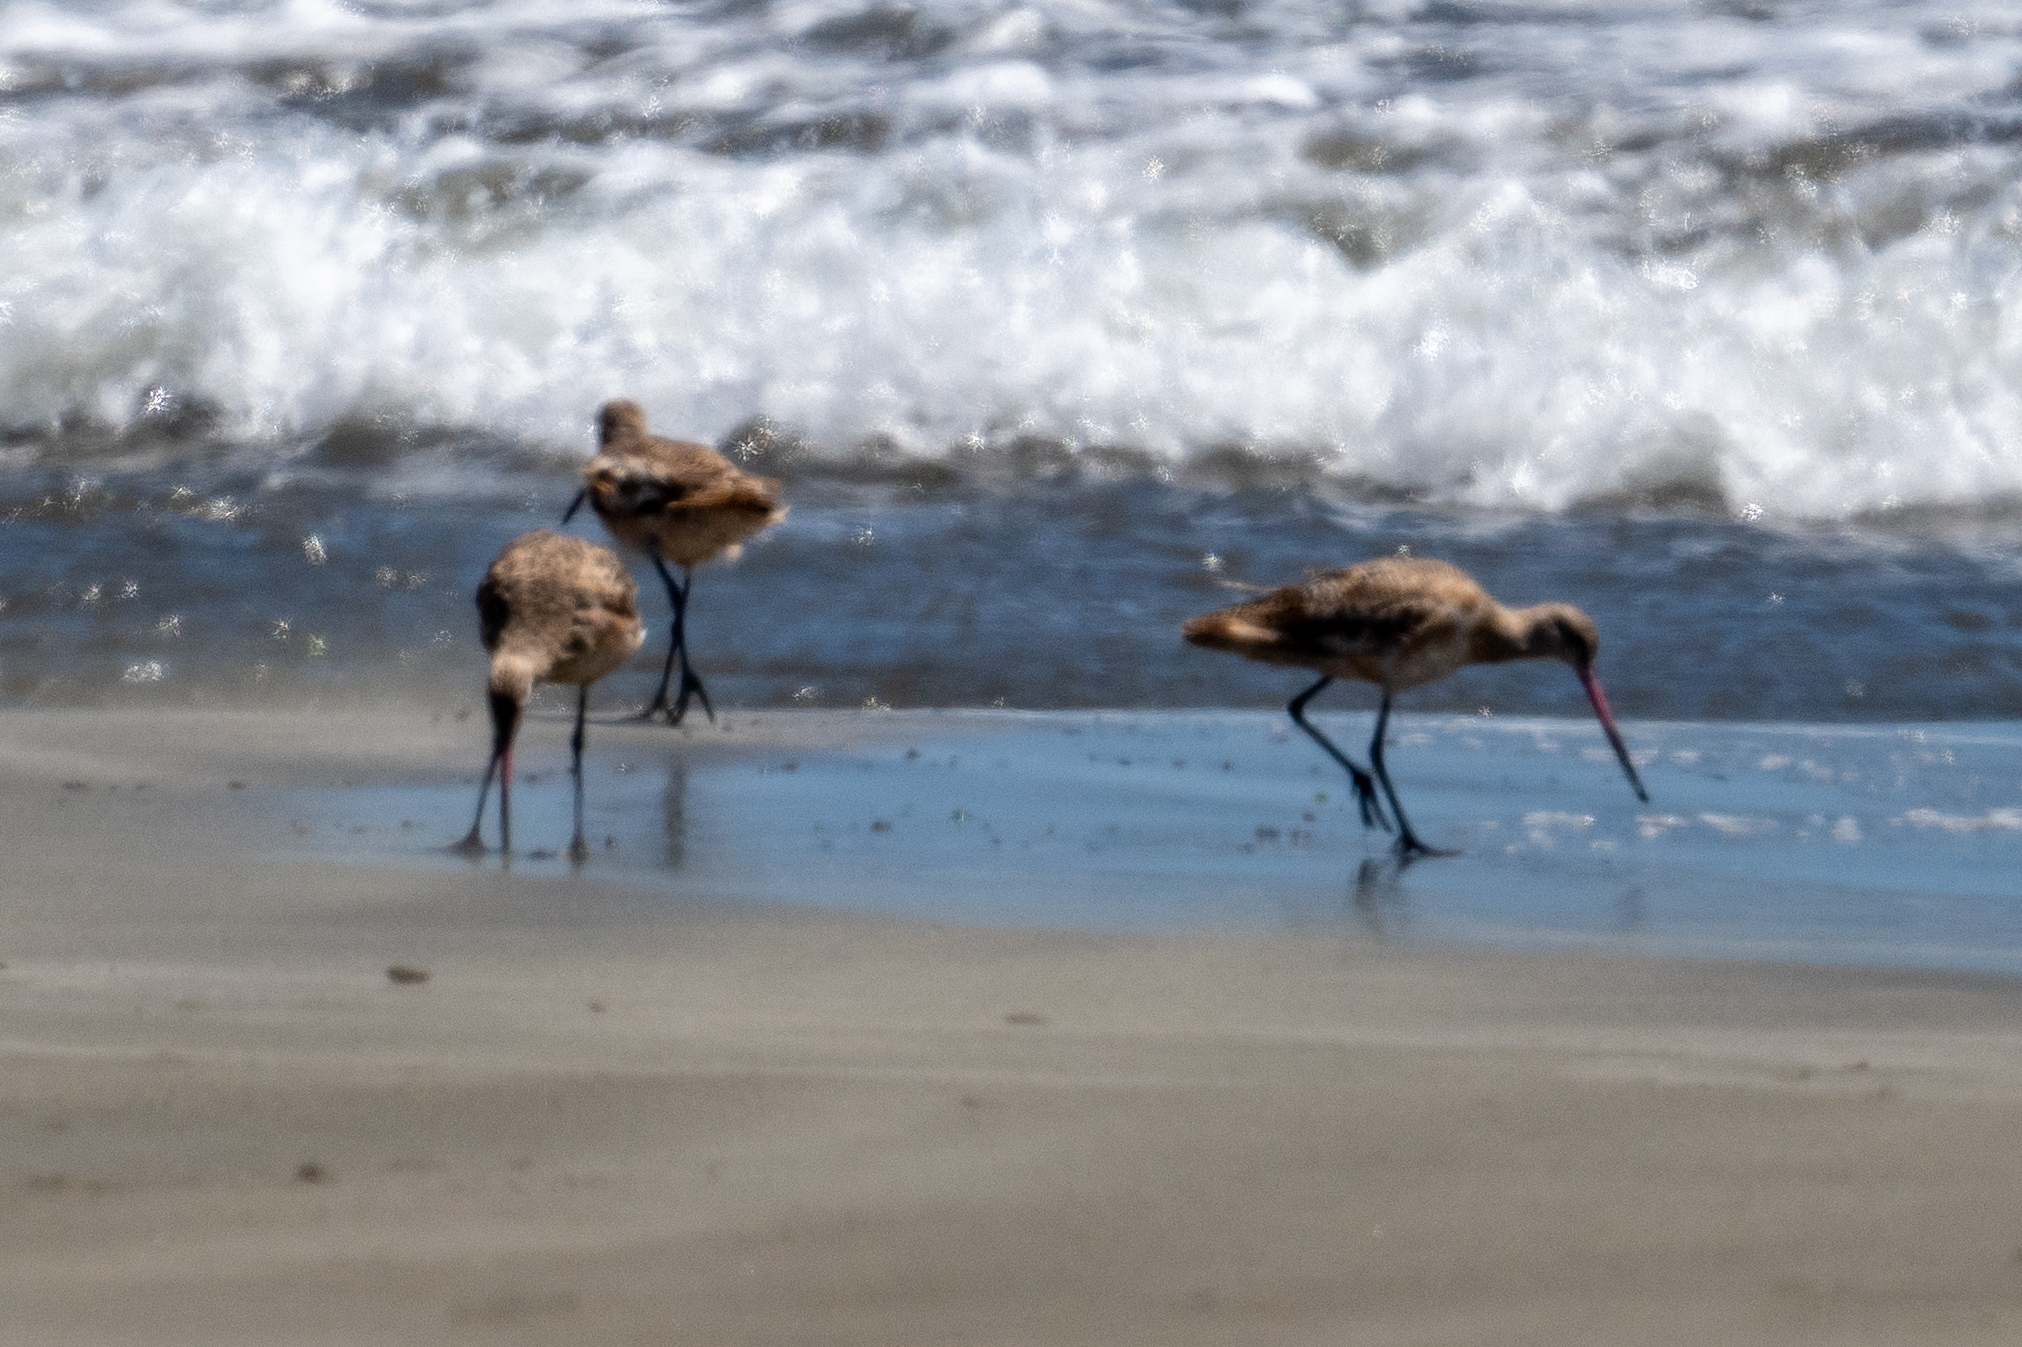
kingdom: Animalia
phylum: Chordata
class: Aves
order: Charadriiformes
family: Scolopacidae
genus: Limosa
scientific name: Limosa fedoa
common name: Marbled godwit
